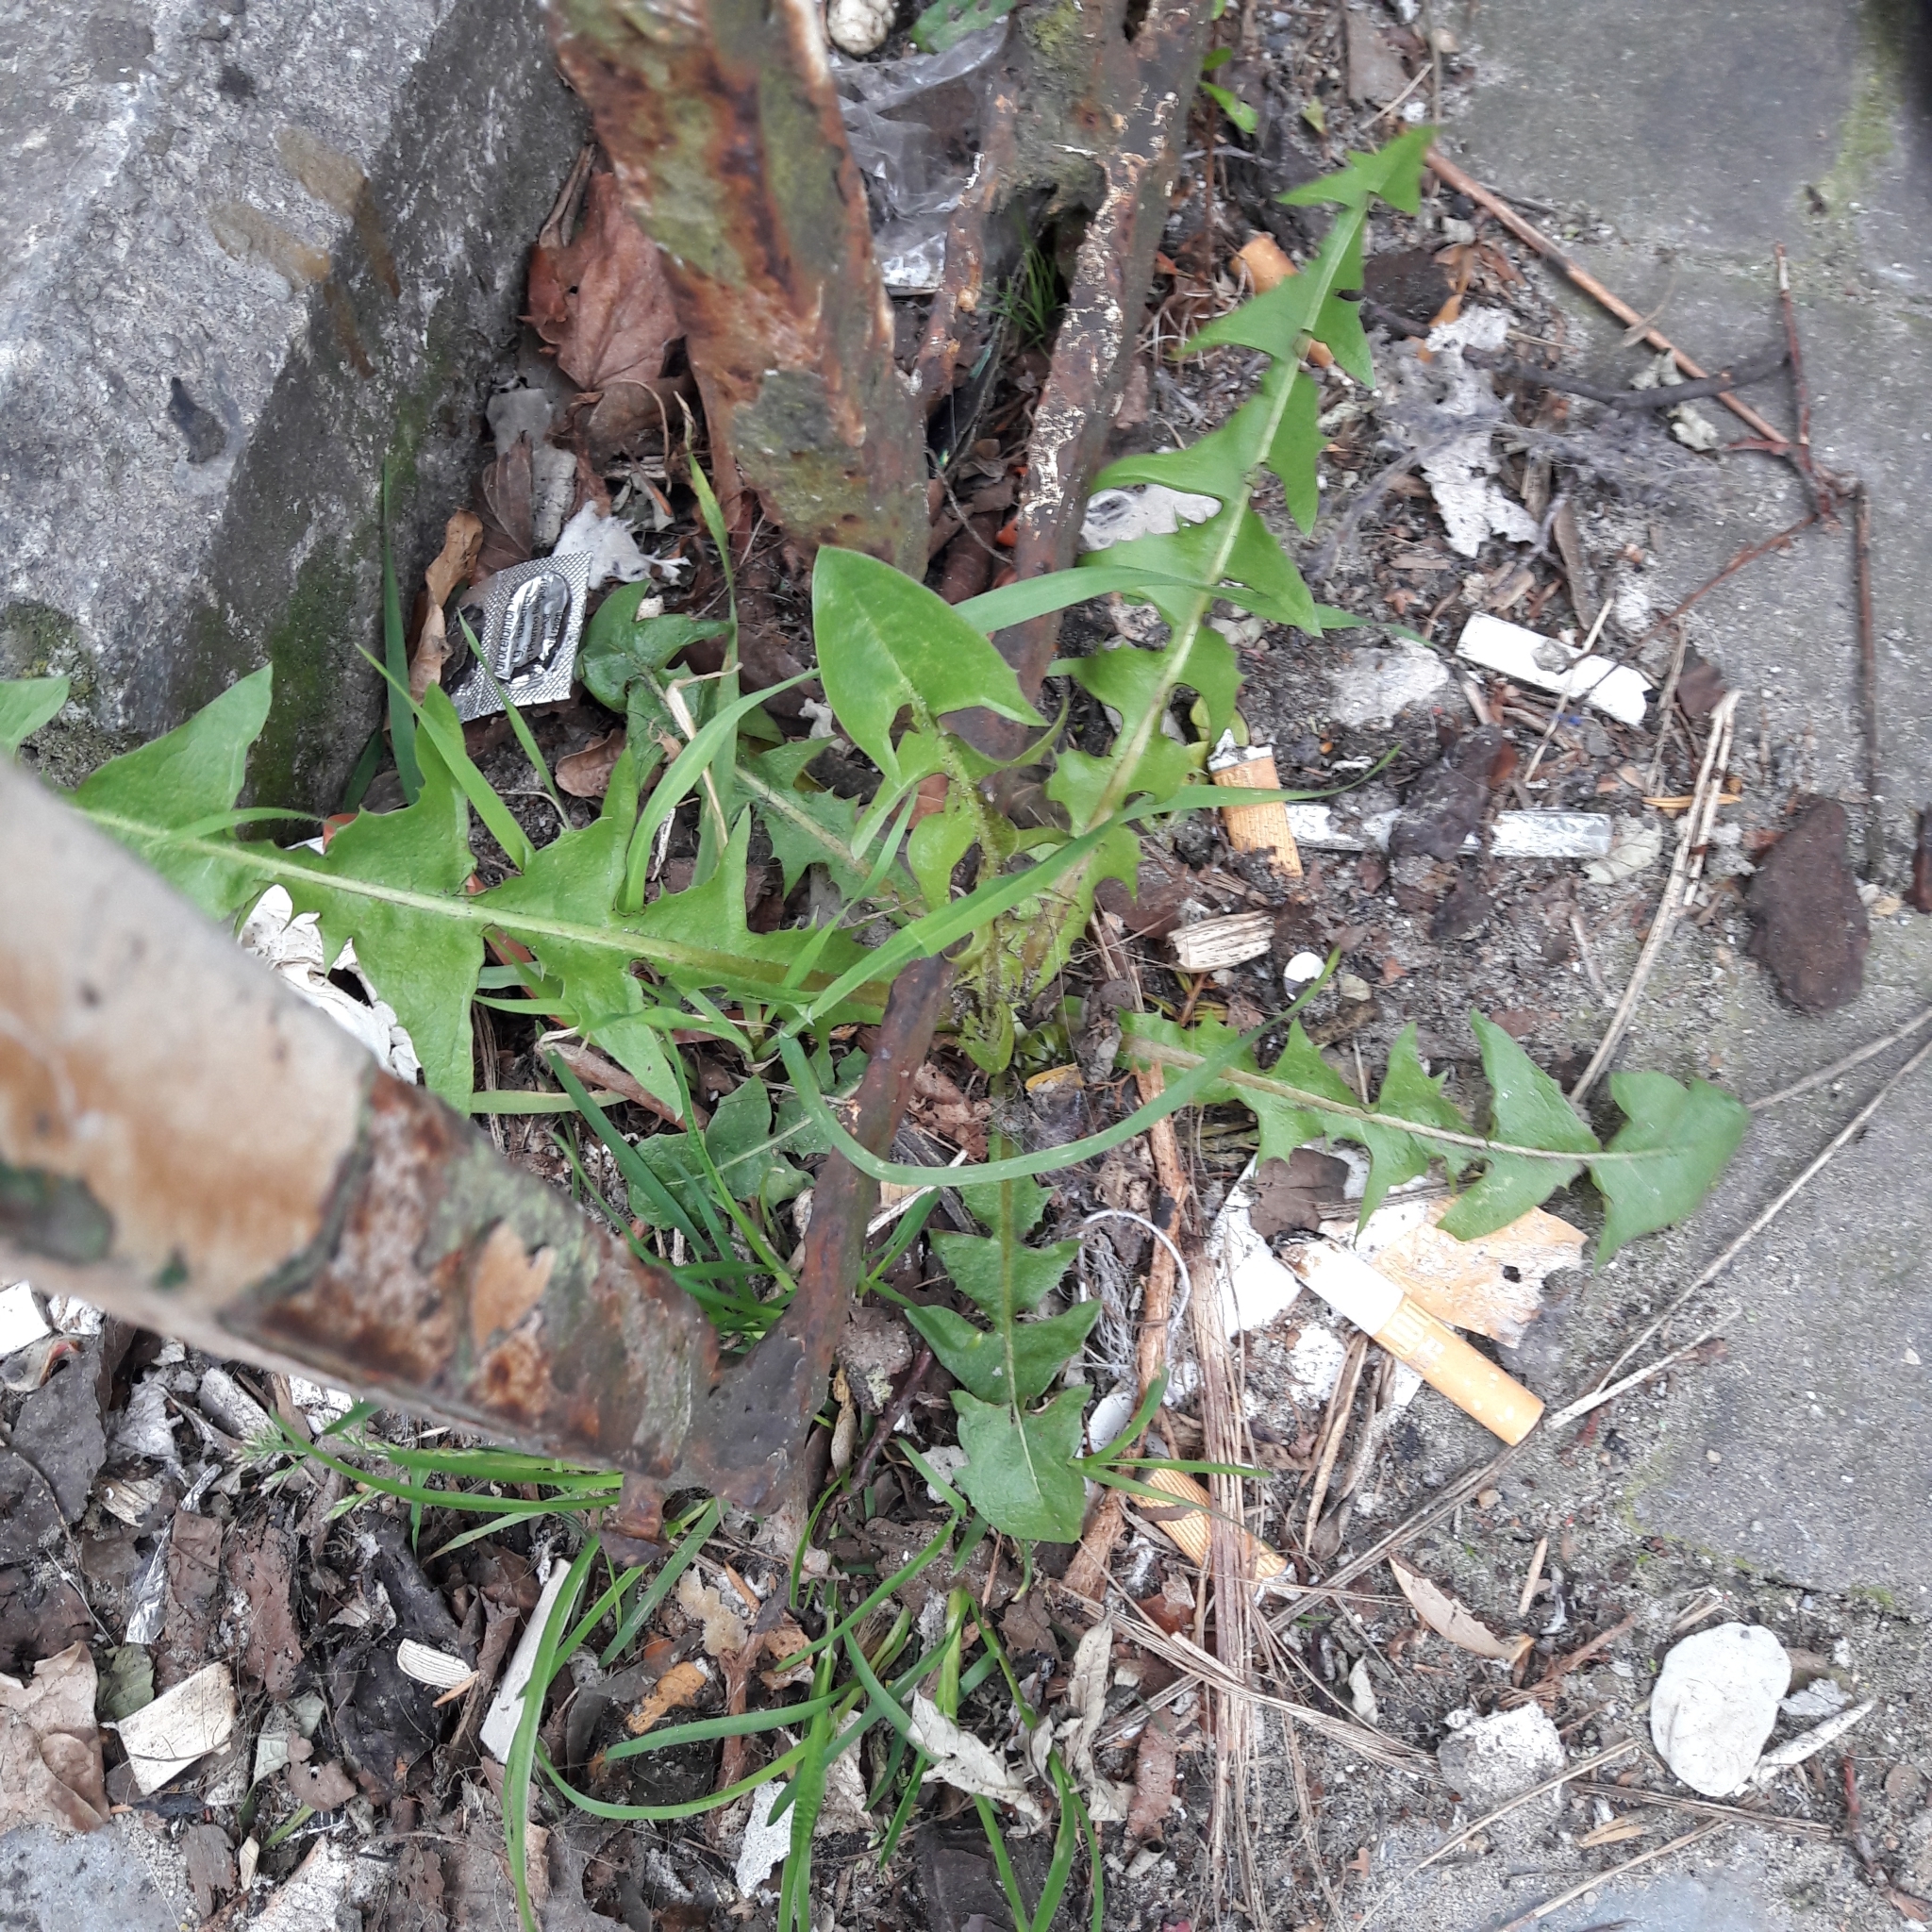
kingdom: Plantae
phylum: Tracheophyta
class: Magnoliopsida
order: Asterales
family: Asteraceae
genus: Taraxacum
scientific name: Taraxacum officinale
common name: Common dandelion
